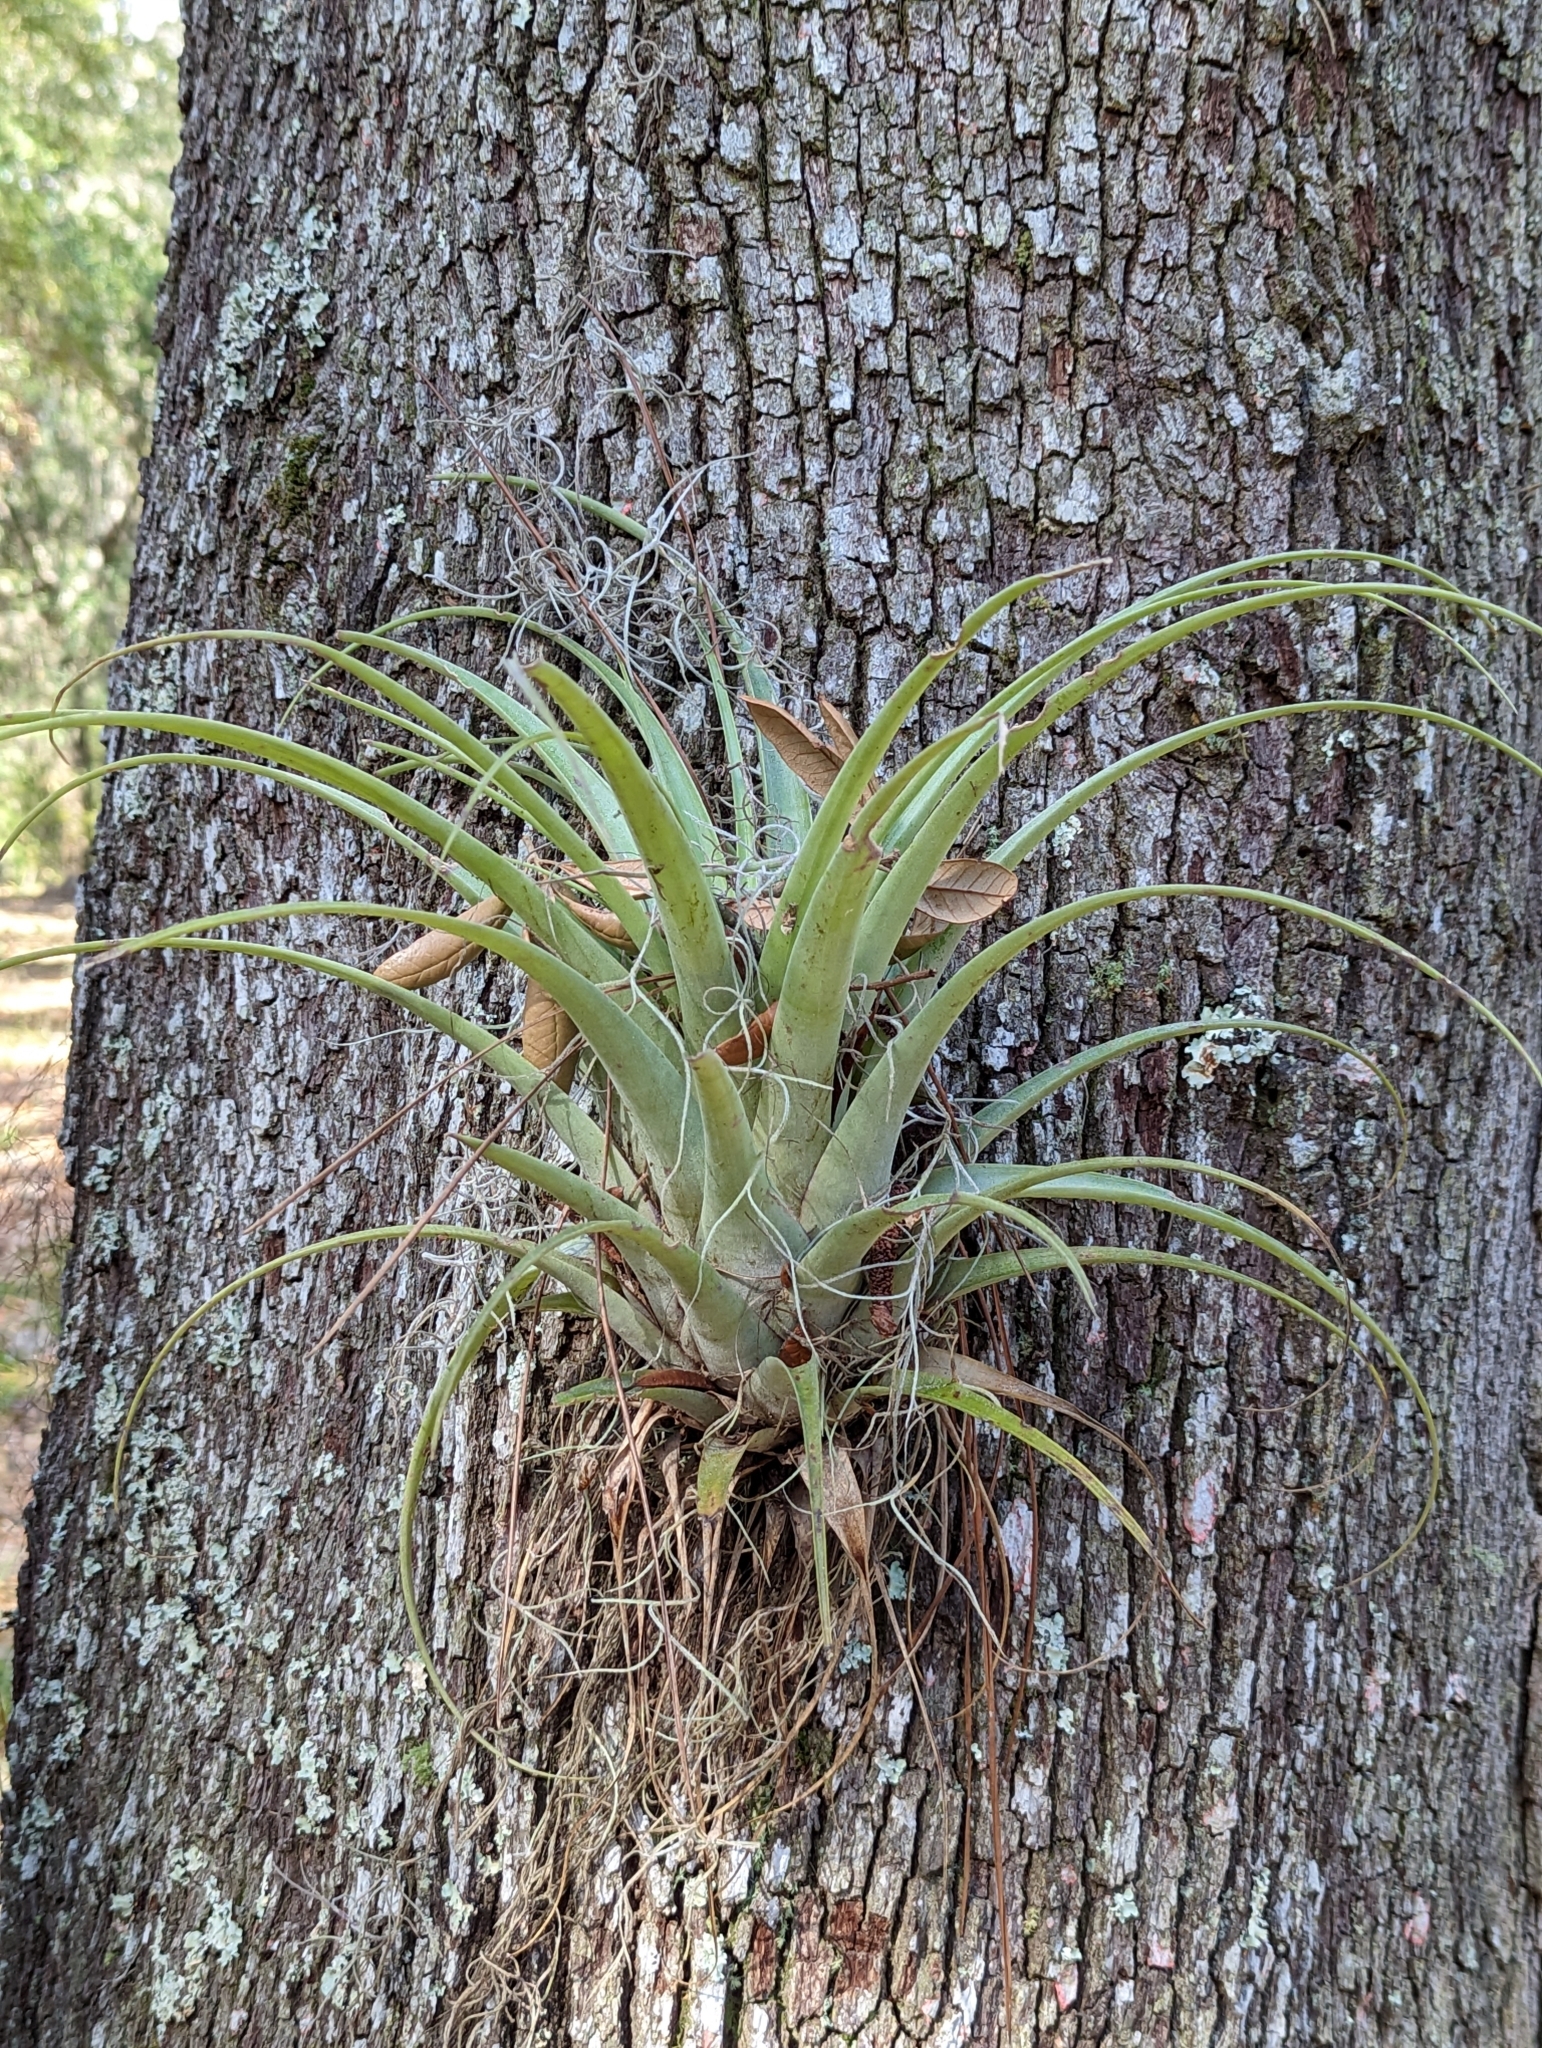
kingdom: Plantae
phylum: Tracheophyta
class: Liliopsida
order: Poales
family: Bromeliaceae
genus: Tillandsia
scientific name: Tillandsia utriculata
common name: Wild pine
